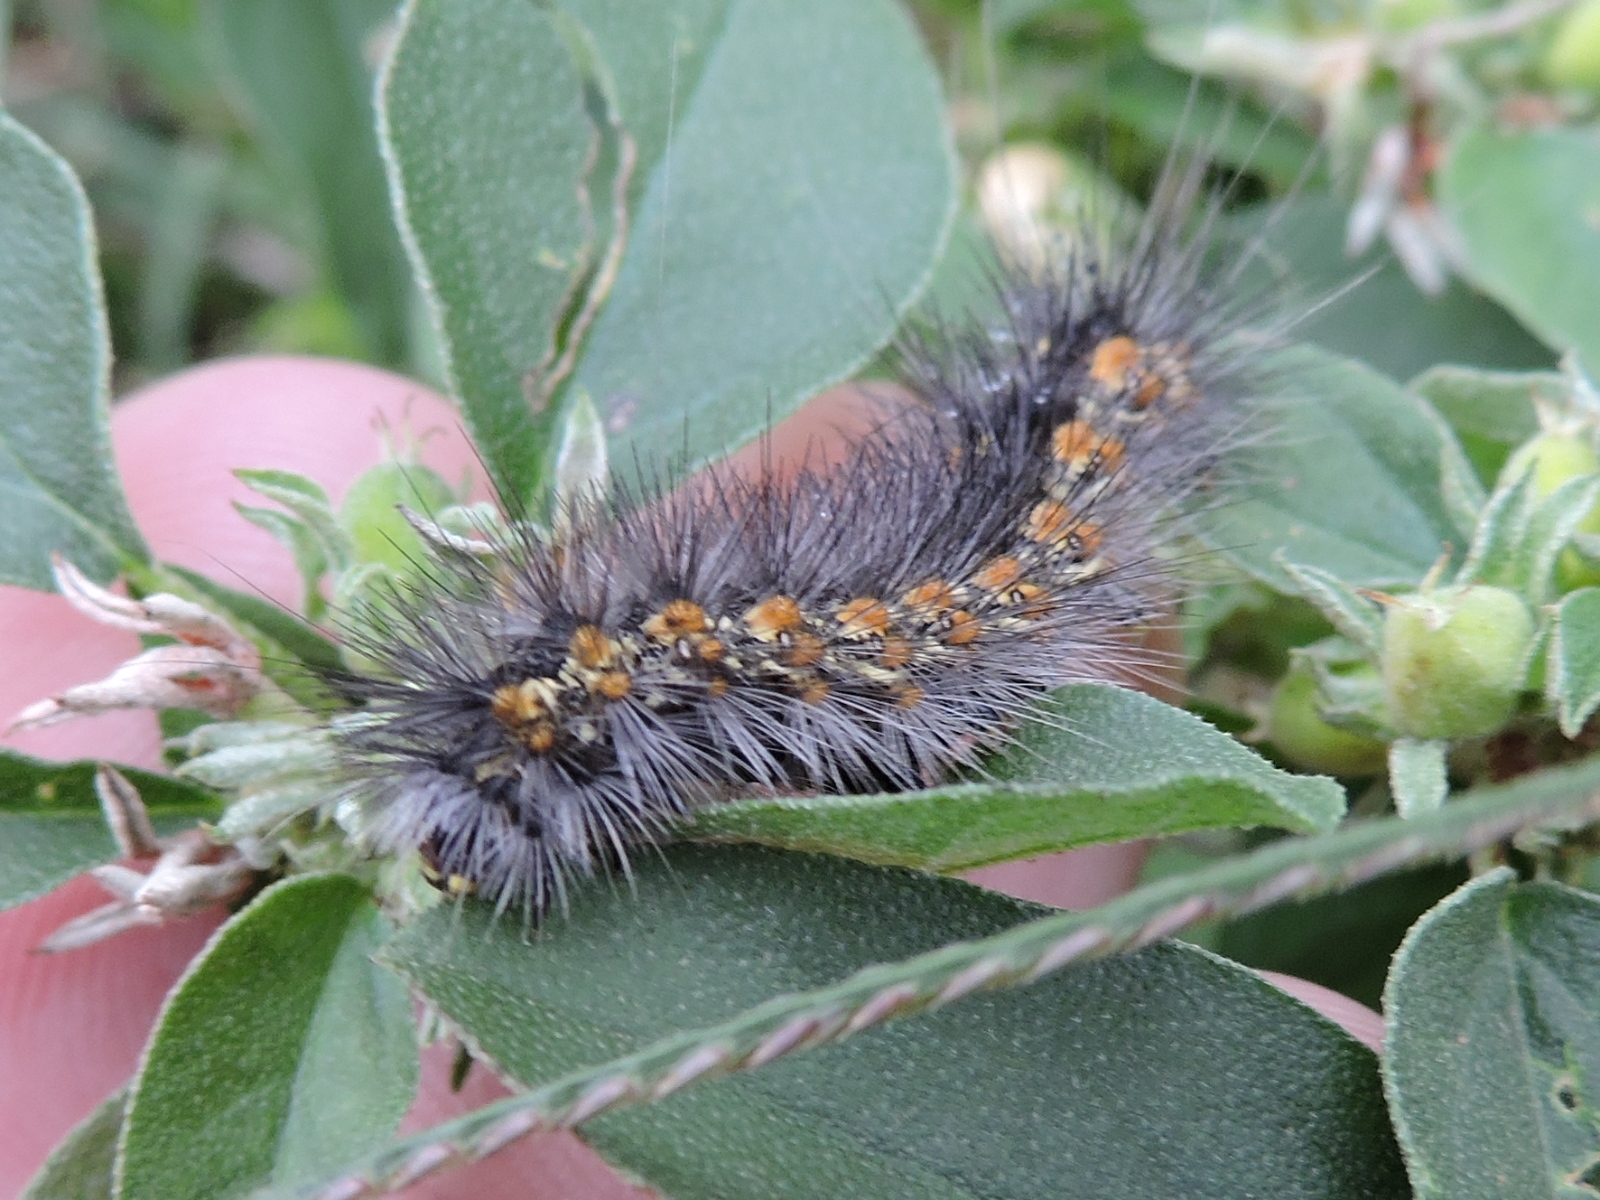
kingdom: Animalia
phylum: Arthropoda
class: Insecta
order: Lepidoptera
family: Erebidae
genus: Estigmene
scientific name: Estigmene acrea
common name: Salt marsh moth
